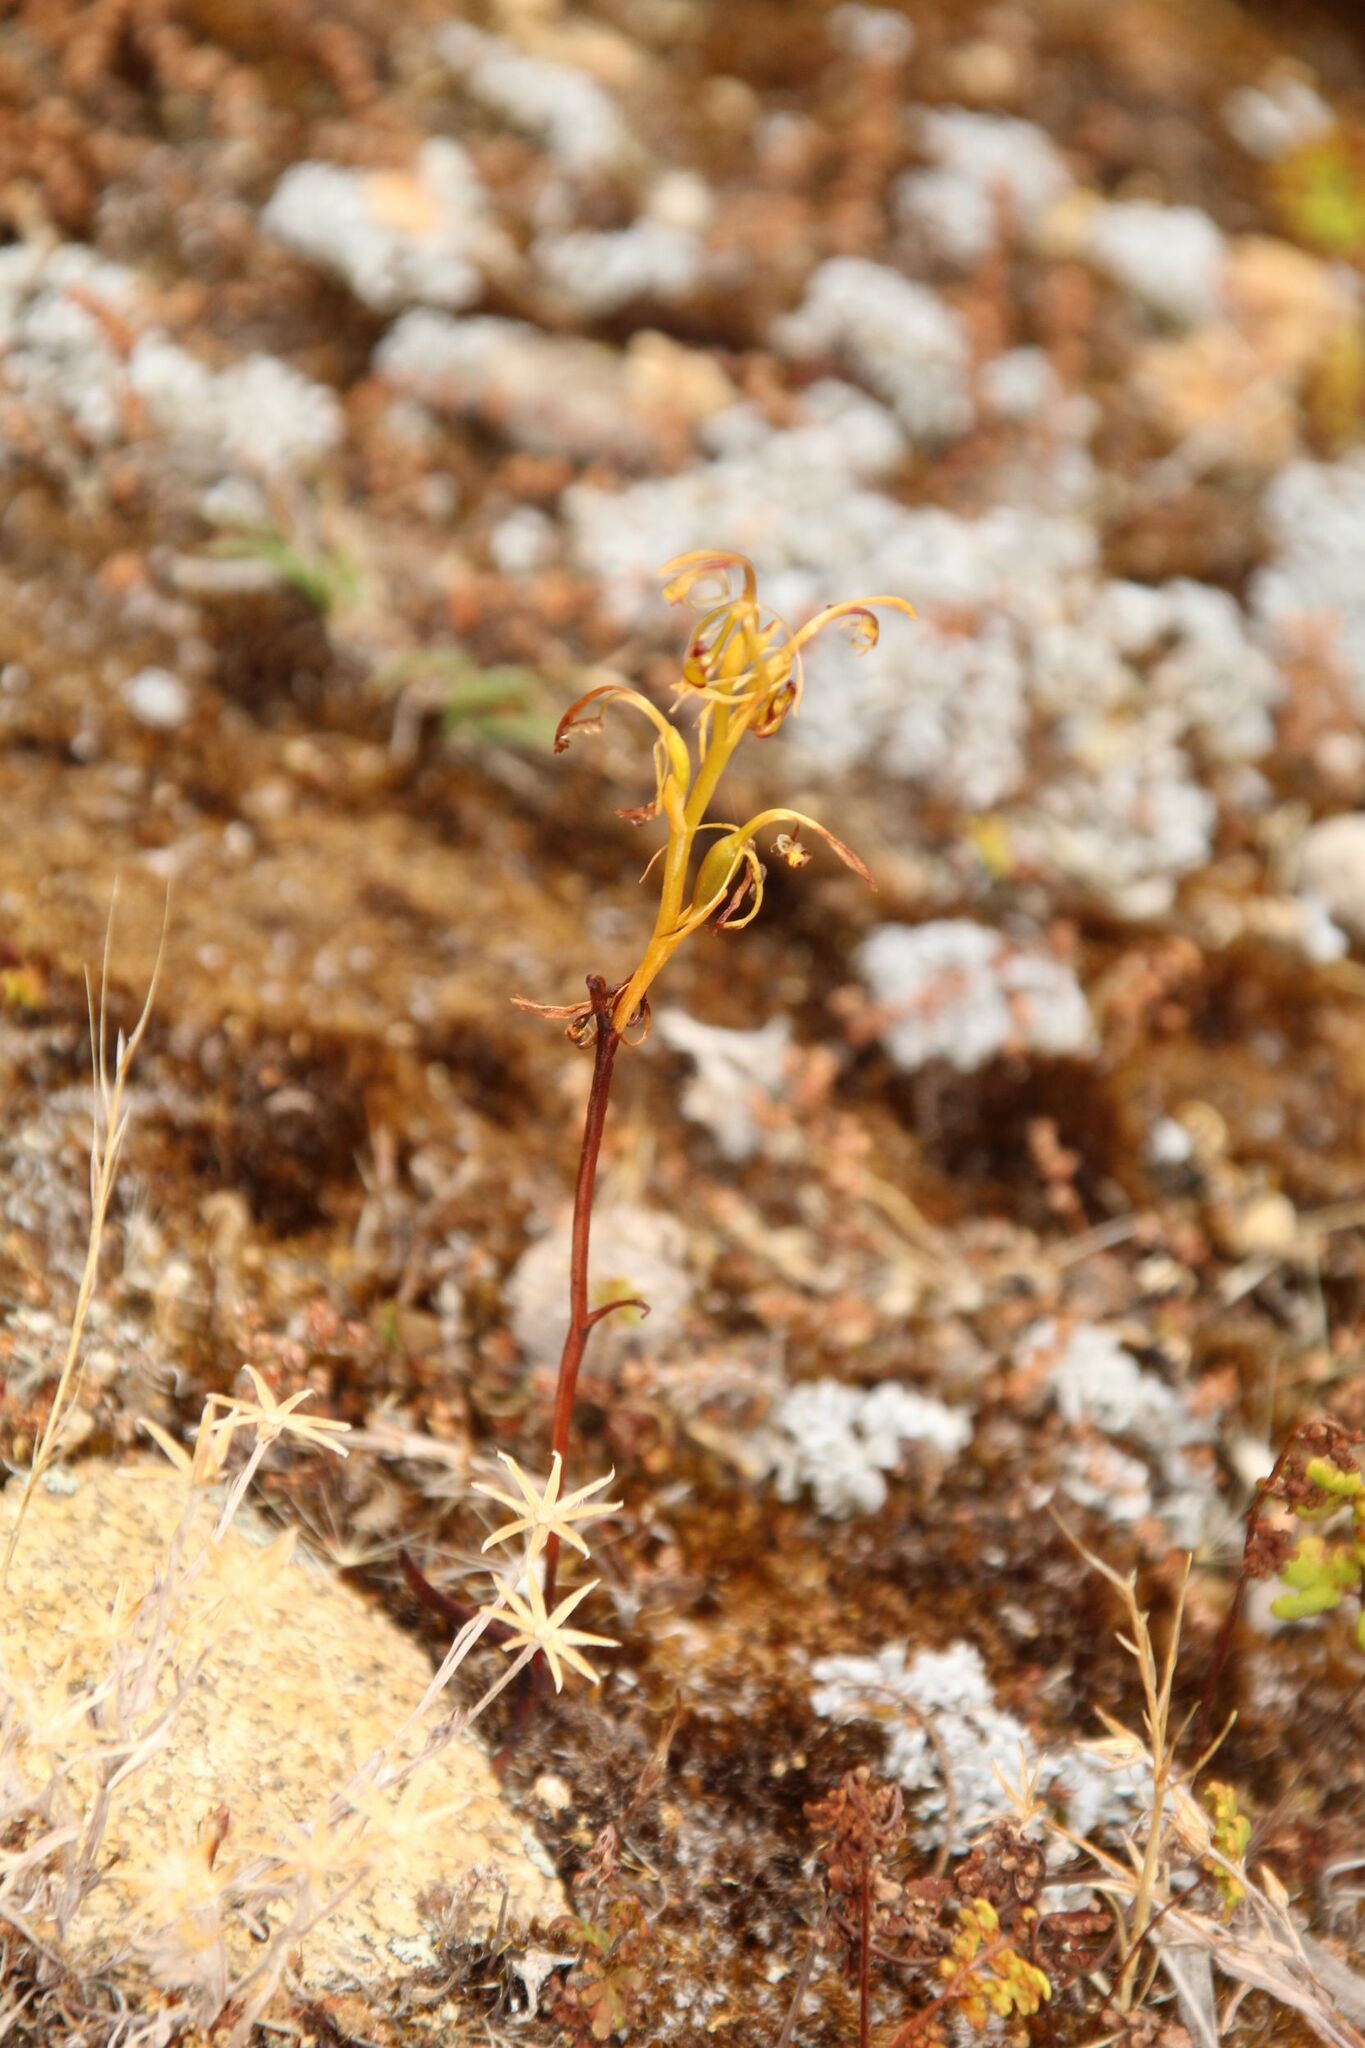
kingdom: Plantae
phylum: Tracheophyta
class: Liliopsida
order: Asparagales
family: Orchidaceae
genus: Spiculaea
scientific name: Spiculaea ciliata
